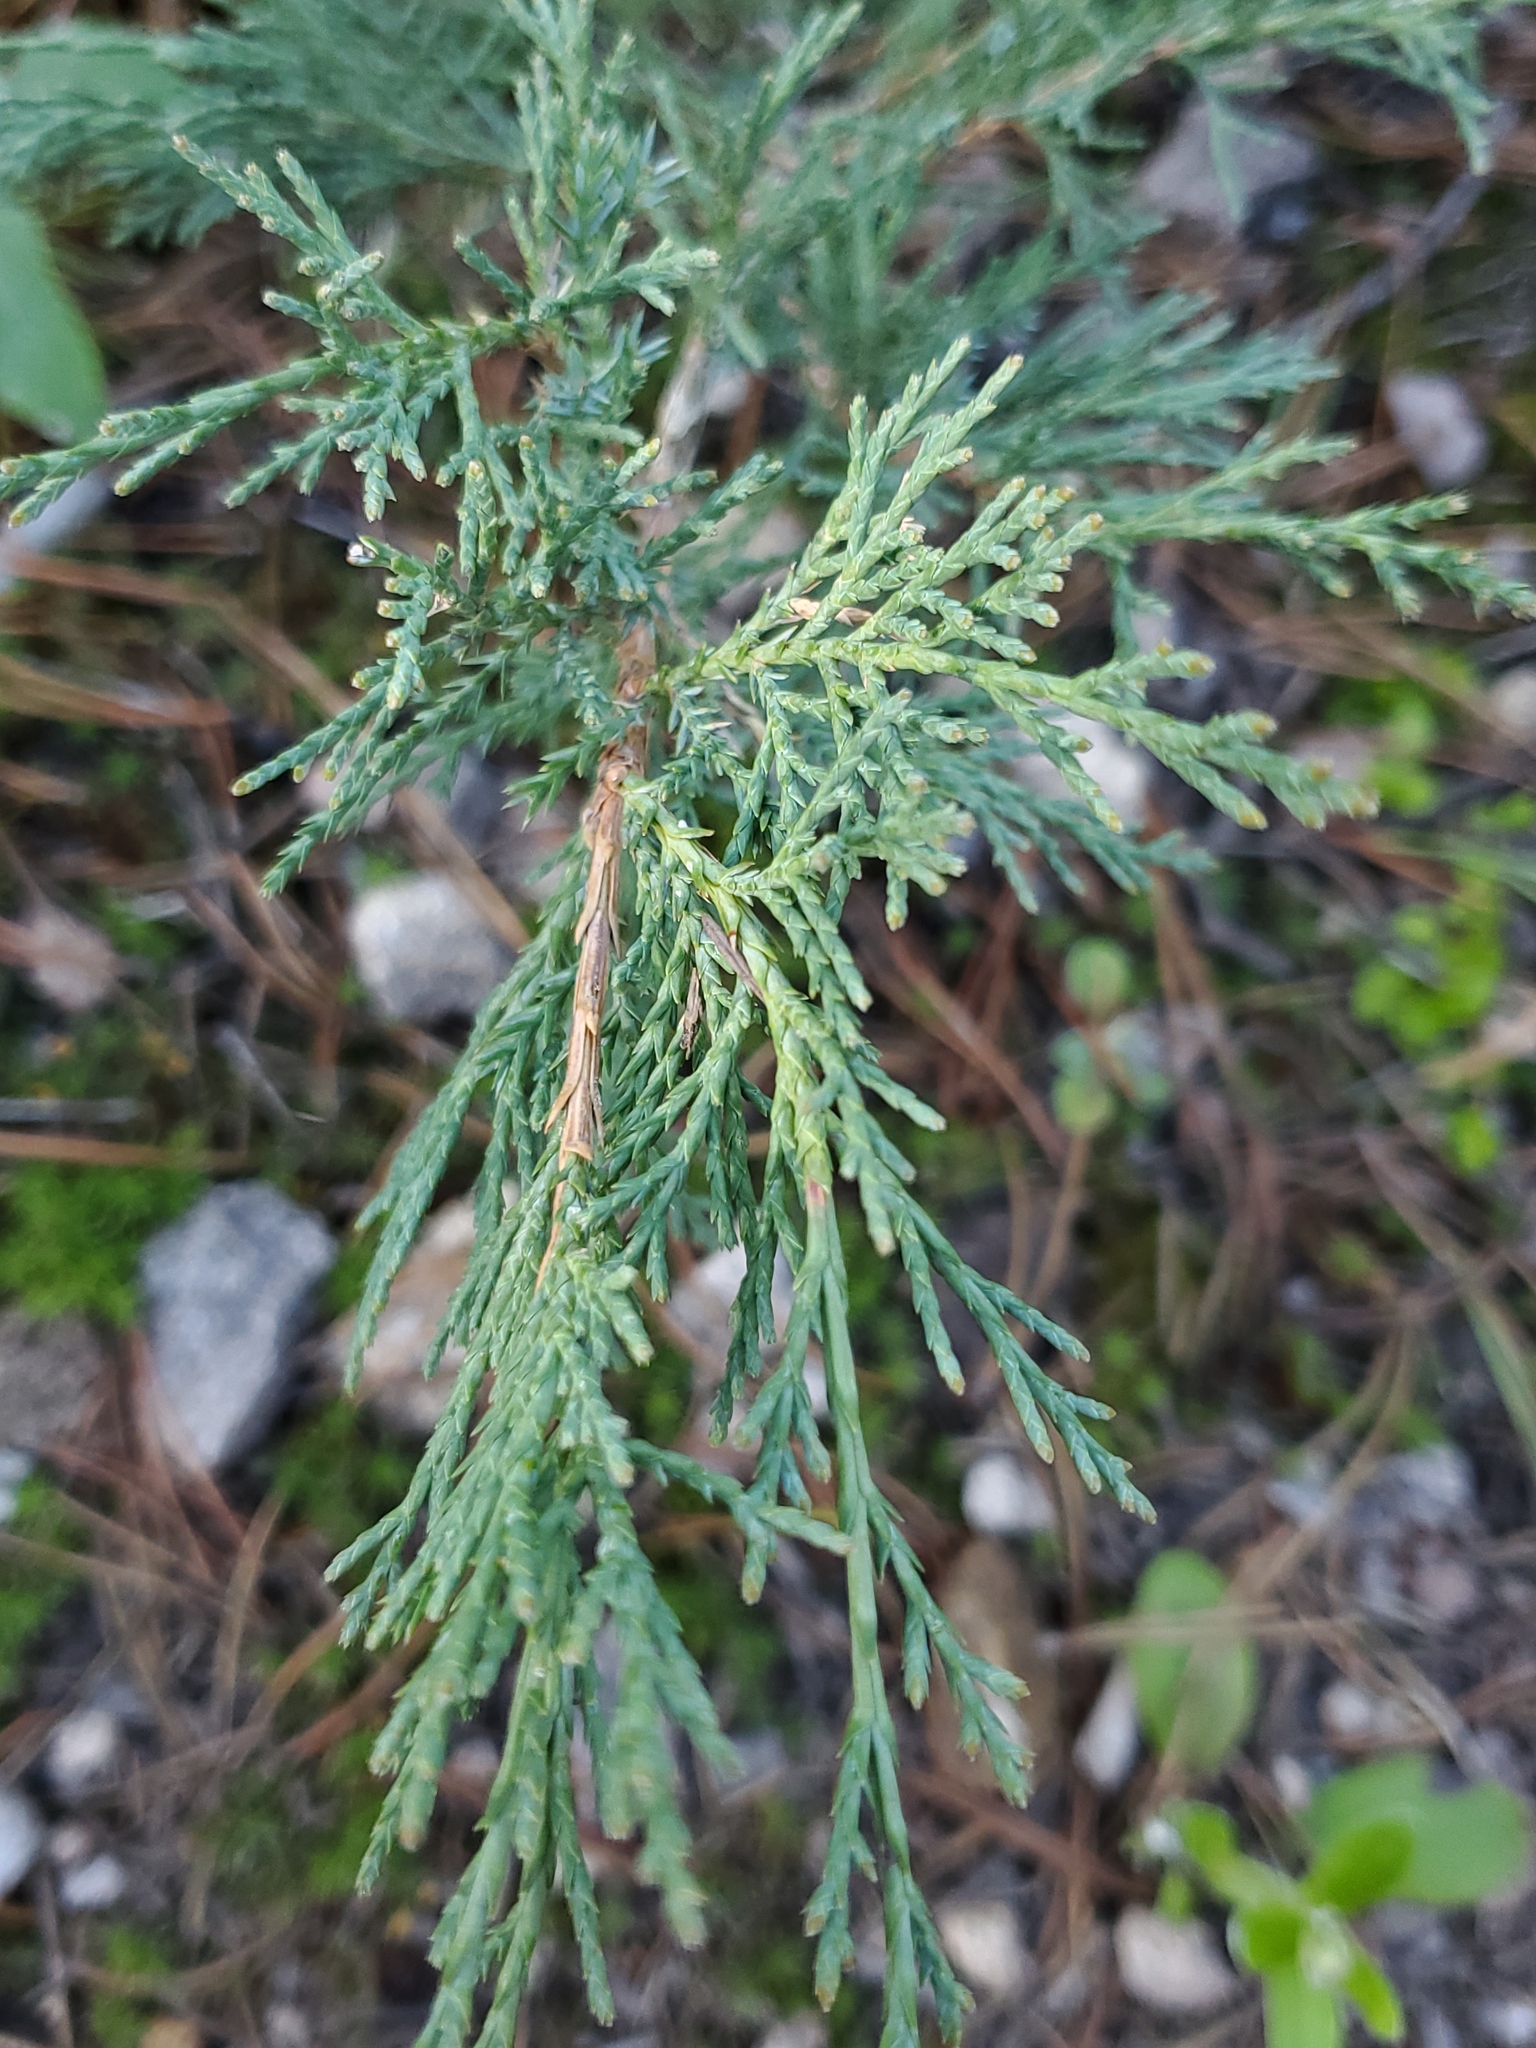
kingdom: Plantae
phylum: Tracheophyta
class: Pinopsida
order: Pinales
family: Cupressaceae
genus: Juniperus
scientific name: Juniperus scopulorum
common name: Rocky mountain juniper
